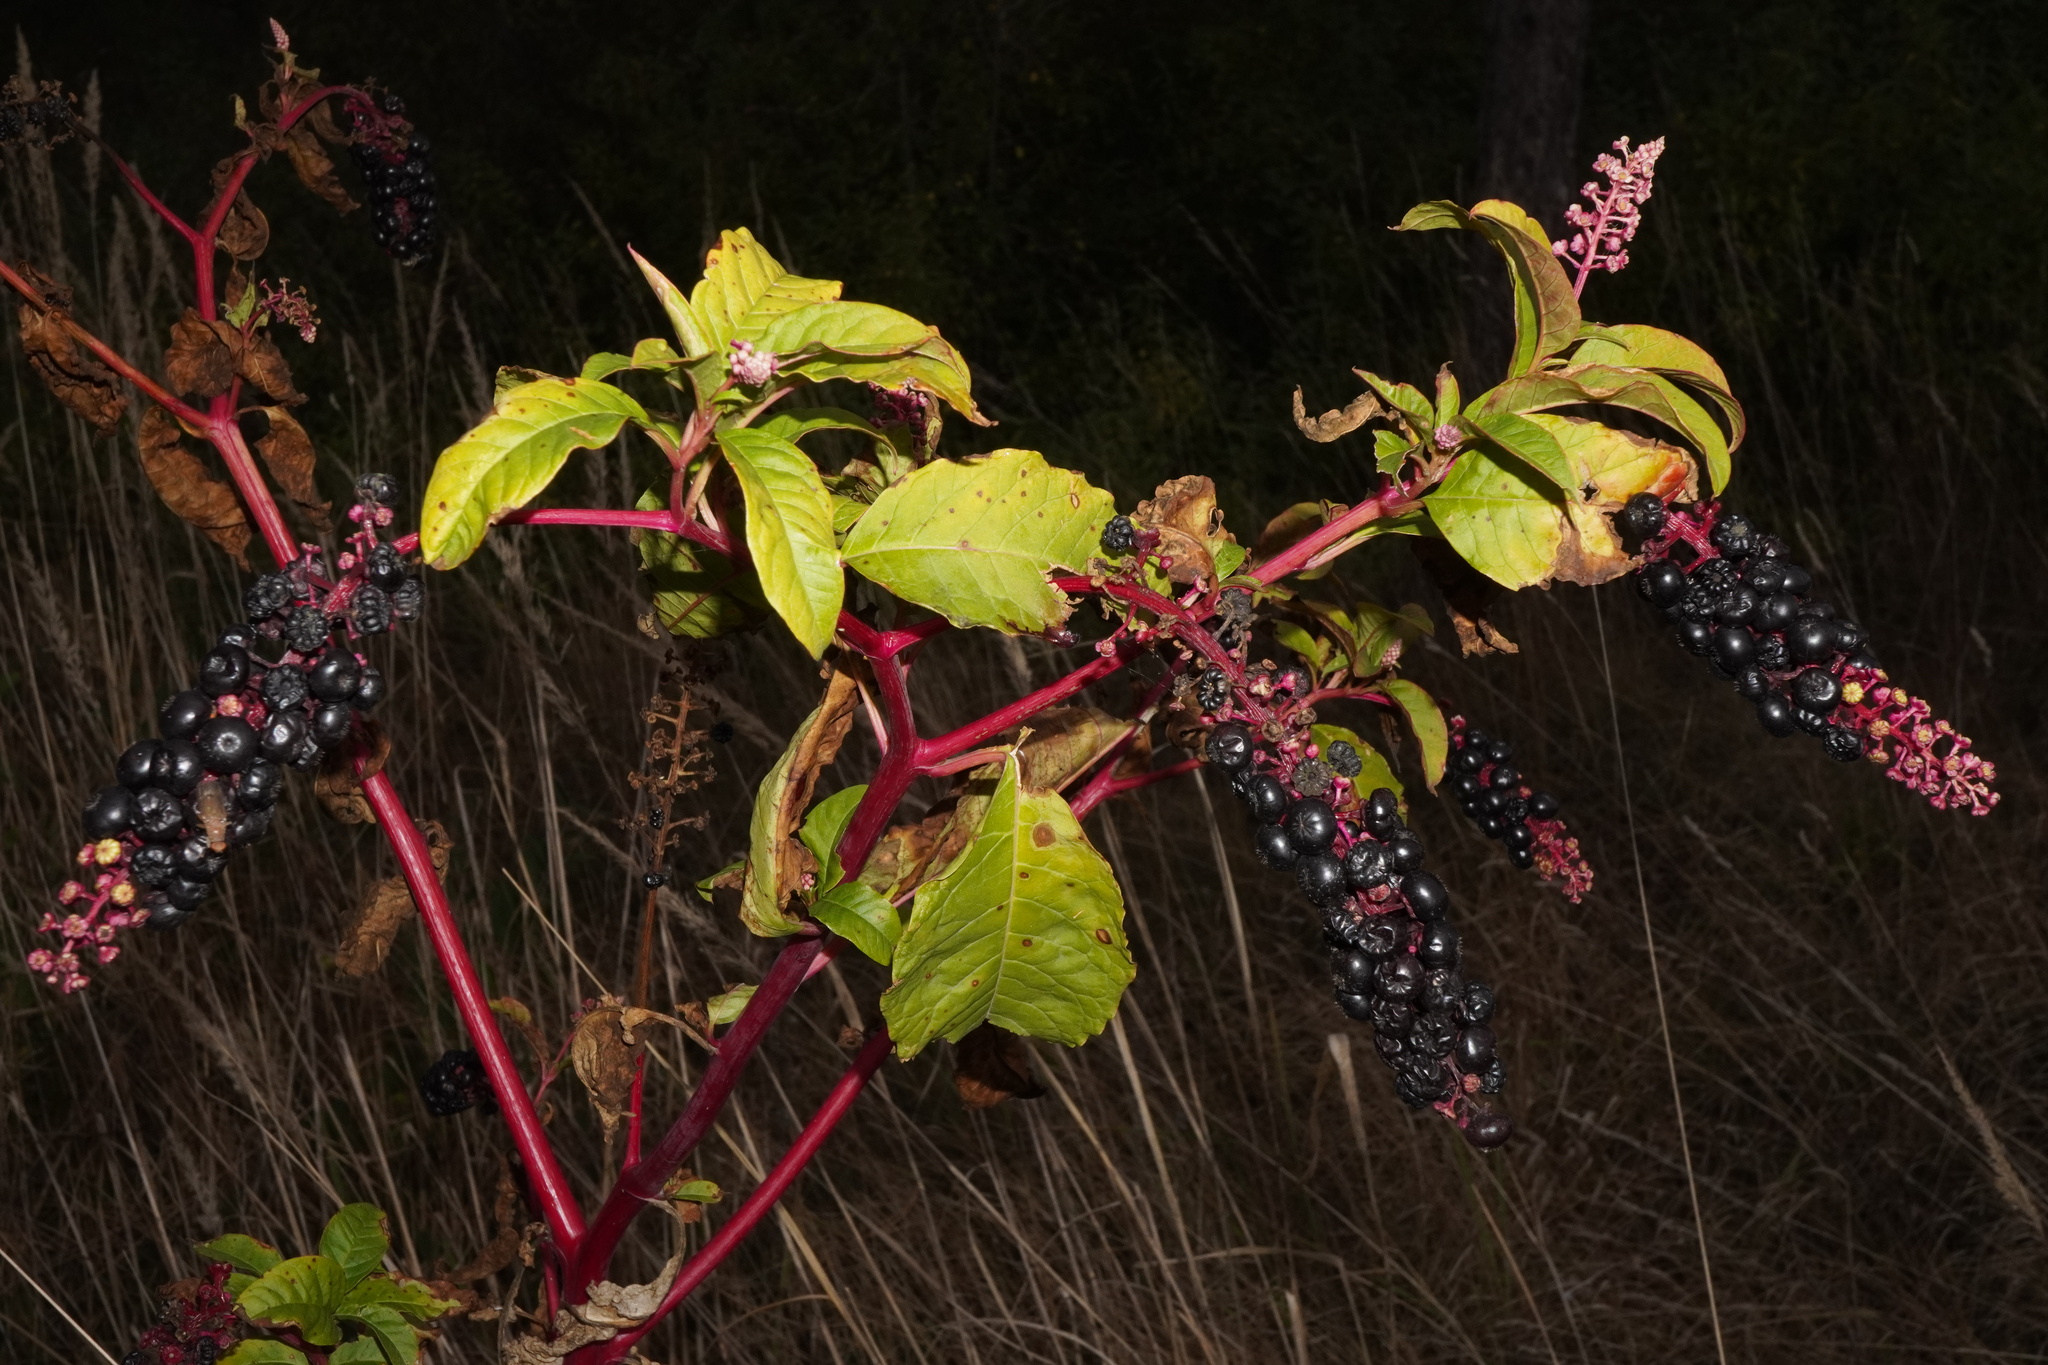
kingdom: Plantae
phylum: Tracheophyta
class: Magnoliopsida
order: Caryophyllales
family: Phytolaccaceae
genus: Phytolacca
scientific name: Phytolacca americana
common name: American pokeweed
